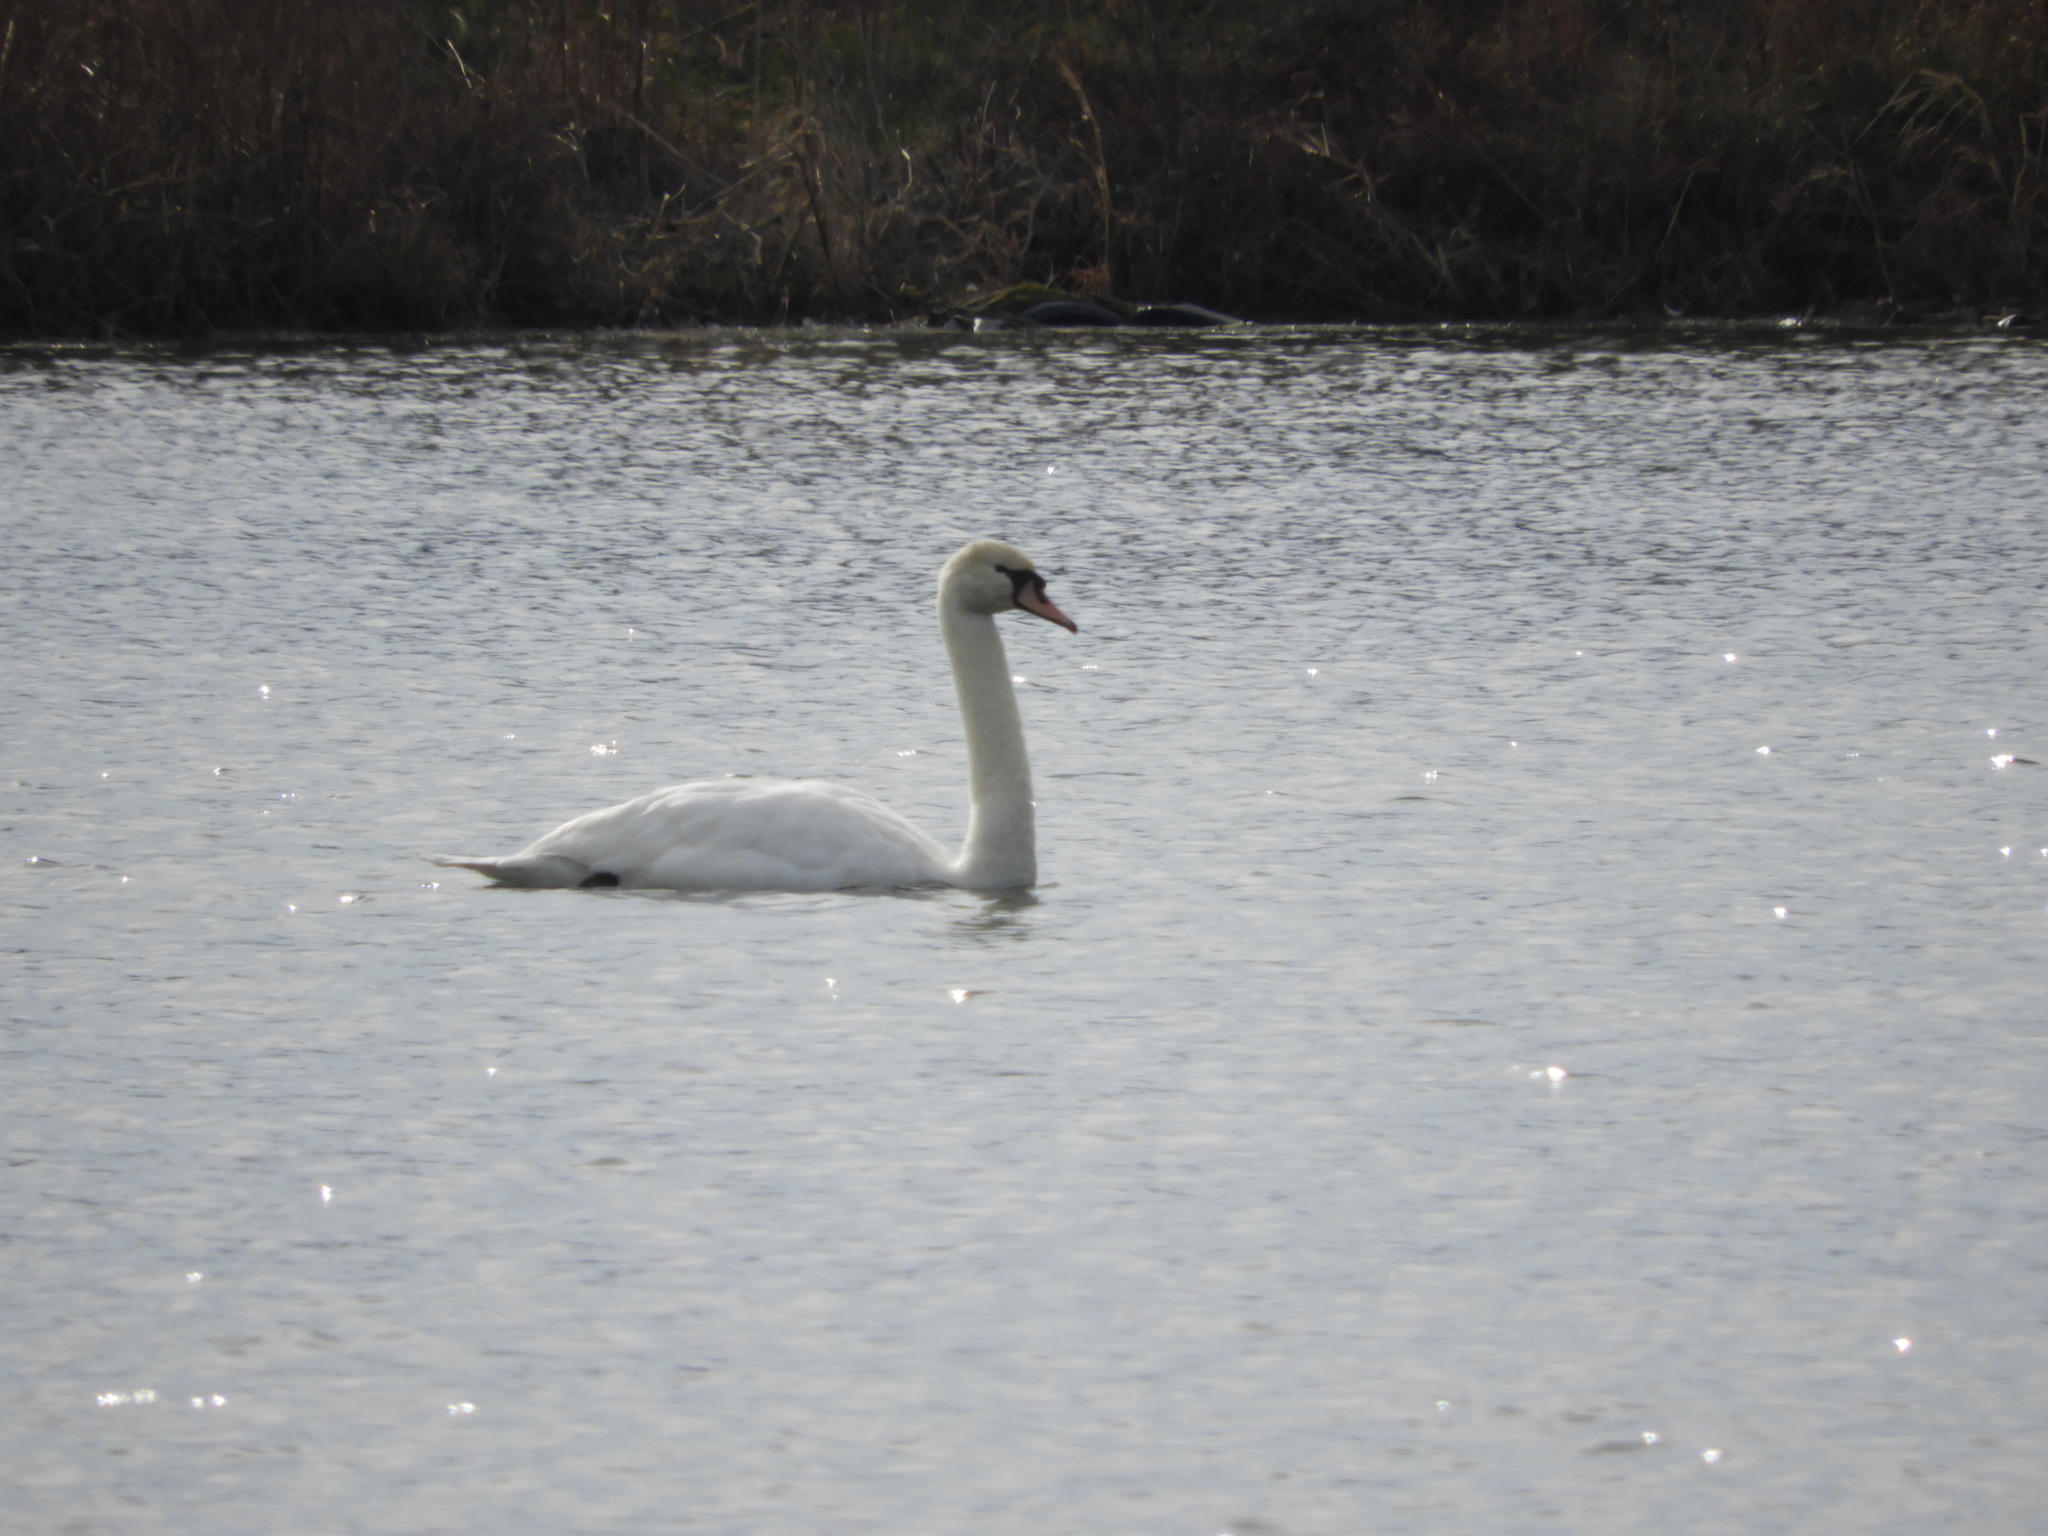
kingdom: Animalia
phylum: Chordata
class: Aves
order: Anseriformes
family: Anatidae
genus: Cygnus
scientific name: Cygnus olor
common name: Mute swan
